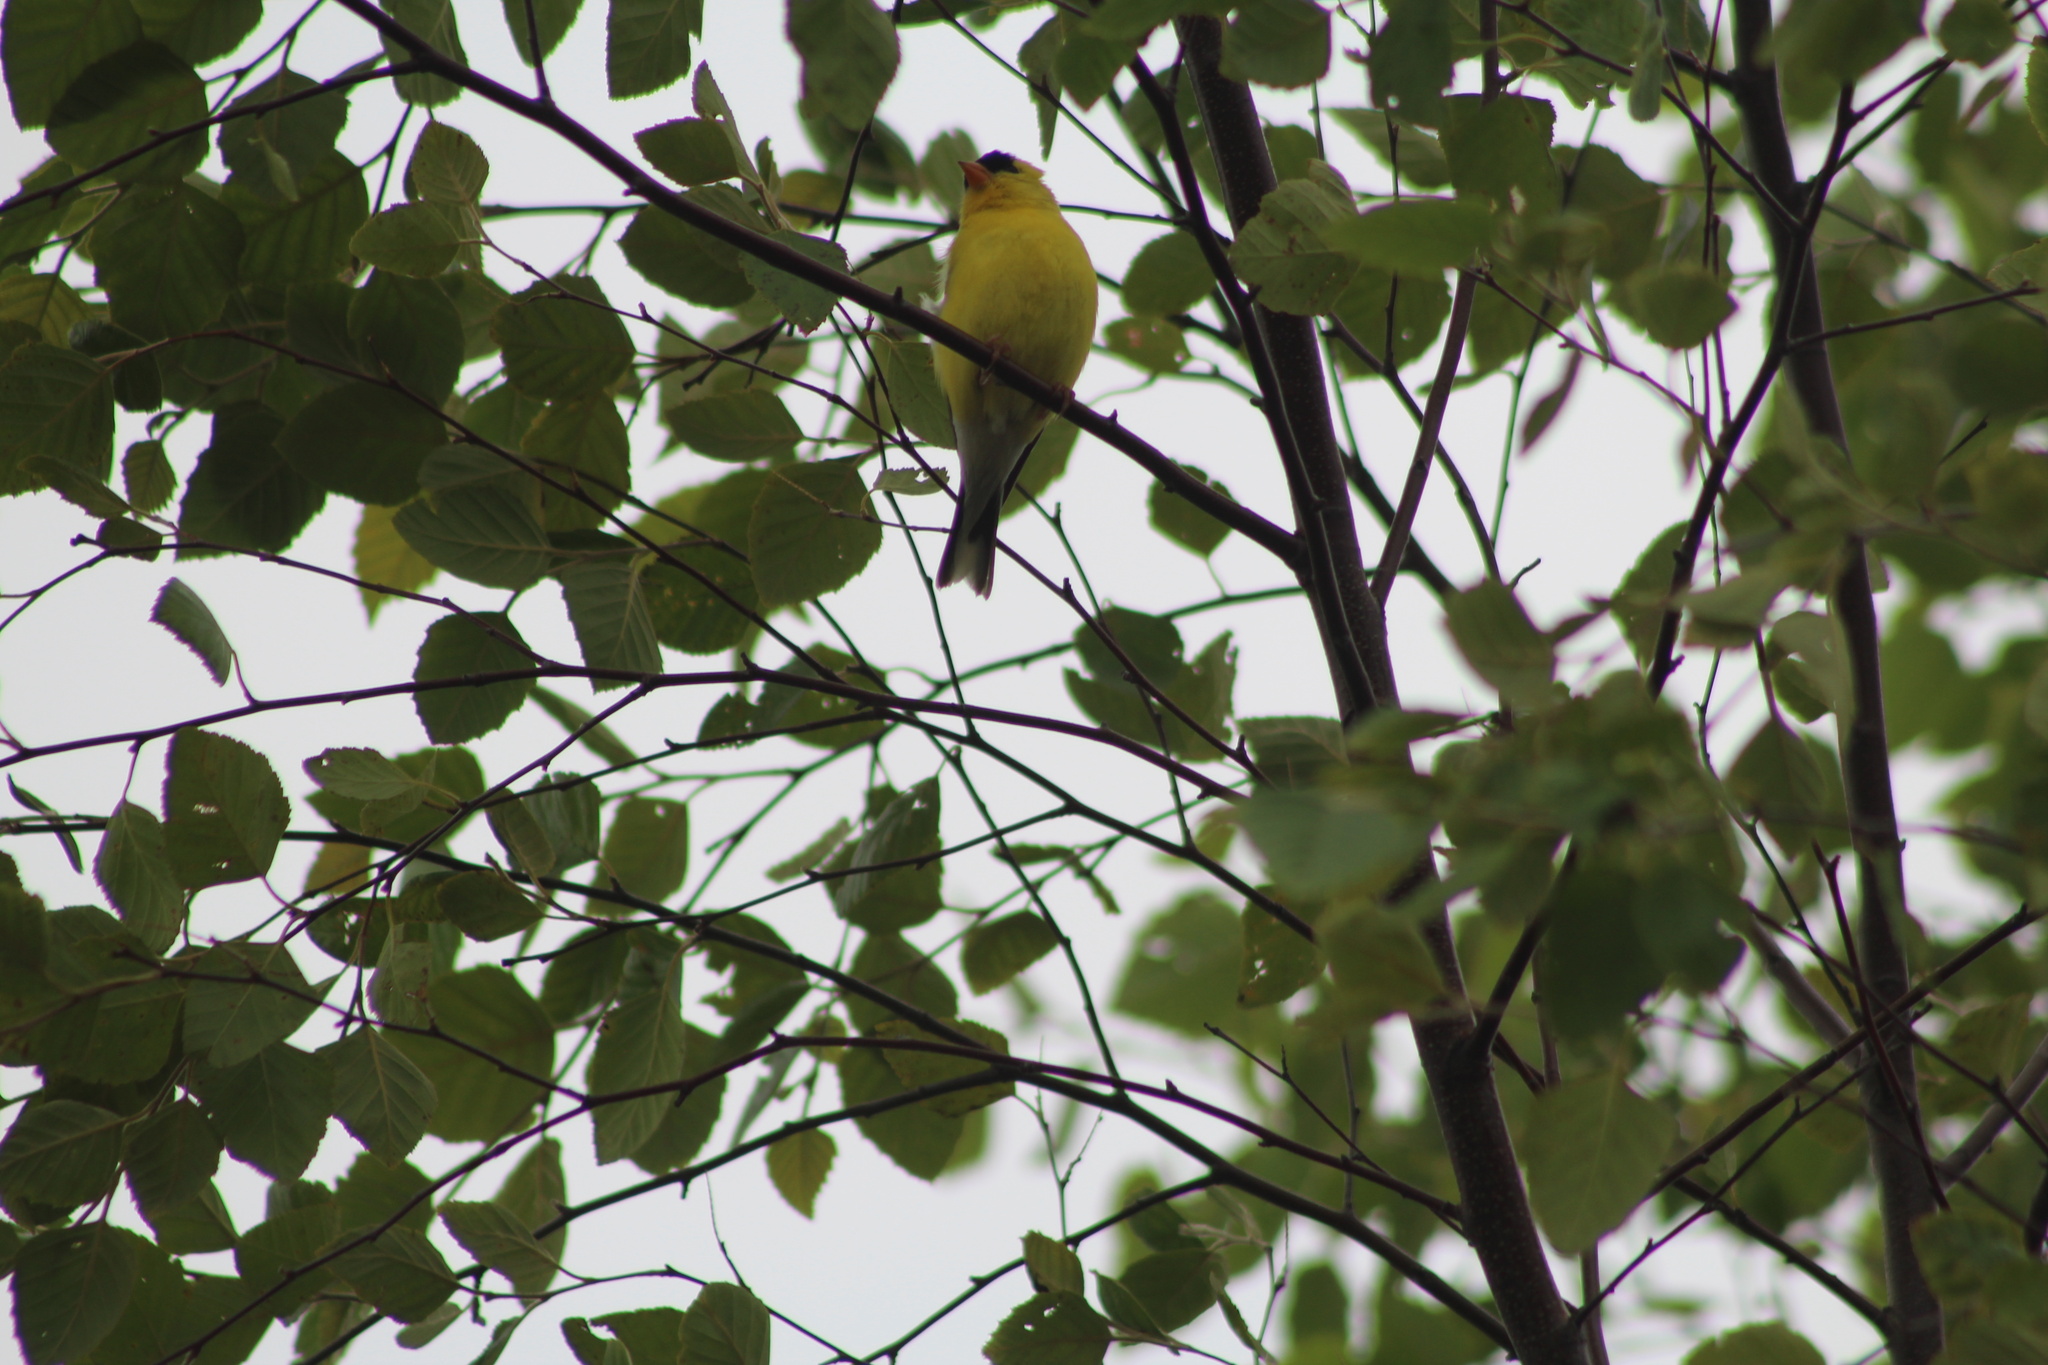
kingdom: Animalia
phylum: Chordata
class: Aves
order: Passeriformes
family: Fringillidae
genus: Spinus
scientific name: Spinus tristis
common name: American goldfinch
